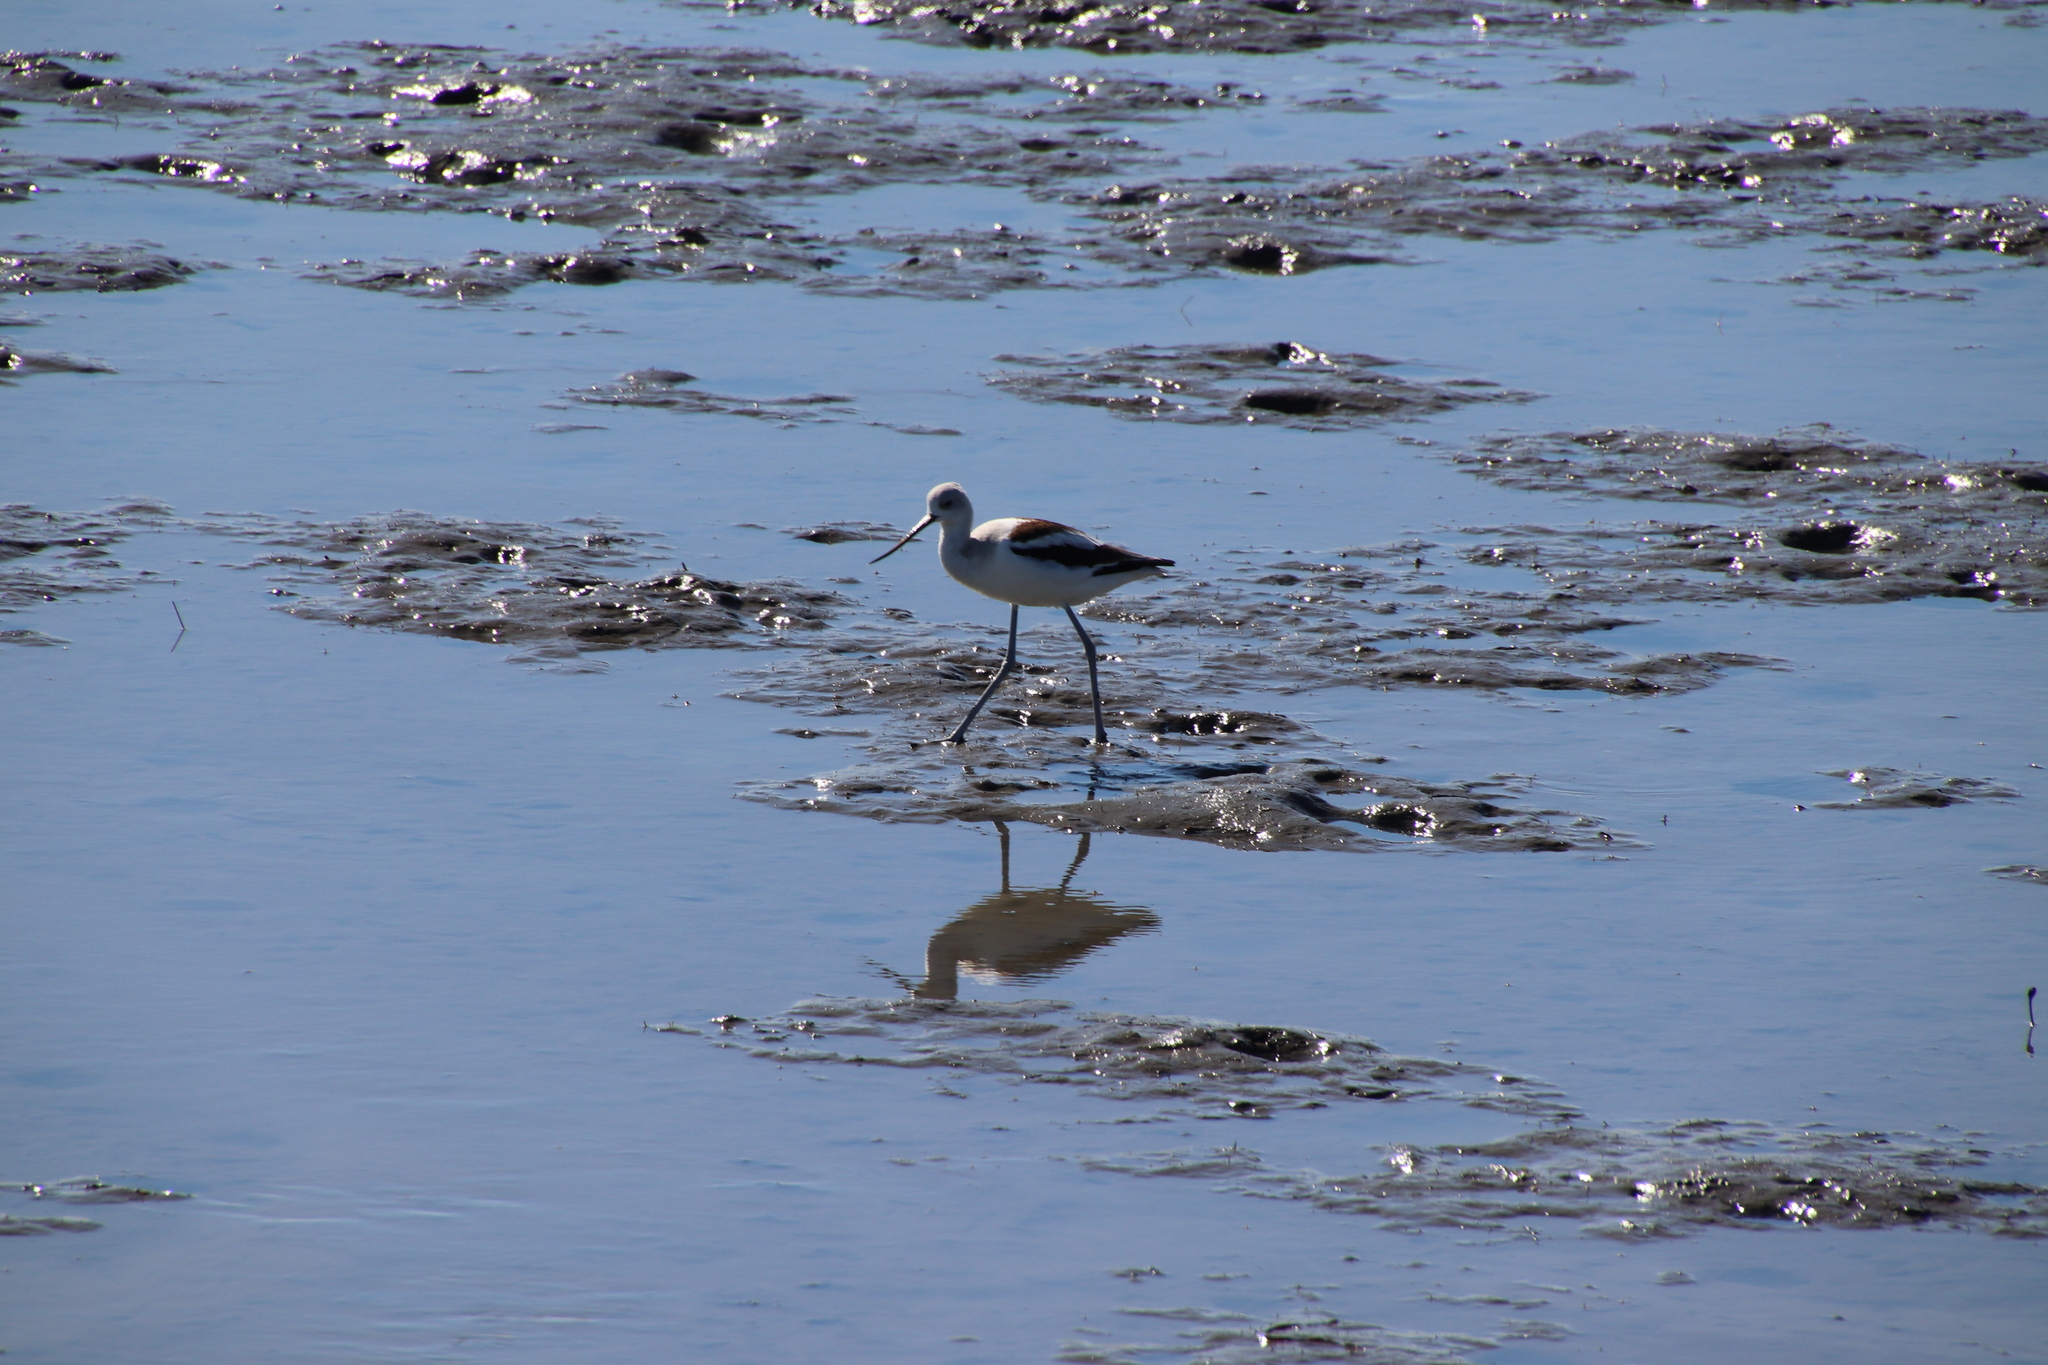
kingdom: Animalia
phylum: Chordata
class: Aves
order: Charadriiformes
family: Recurvirostridae
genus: Recurvirostra
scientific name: Recurvirostra americana
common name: American avocet
